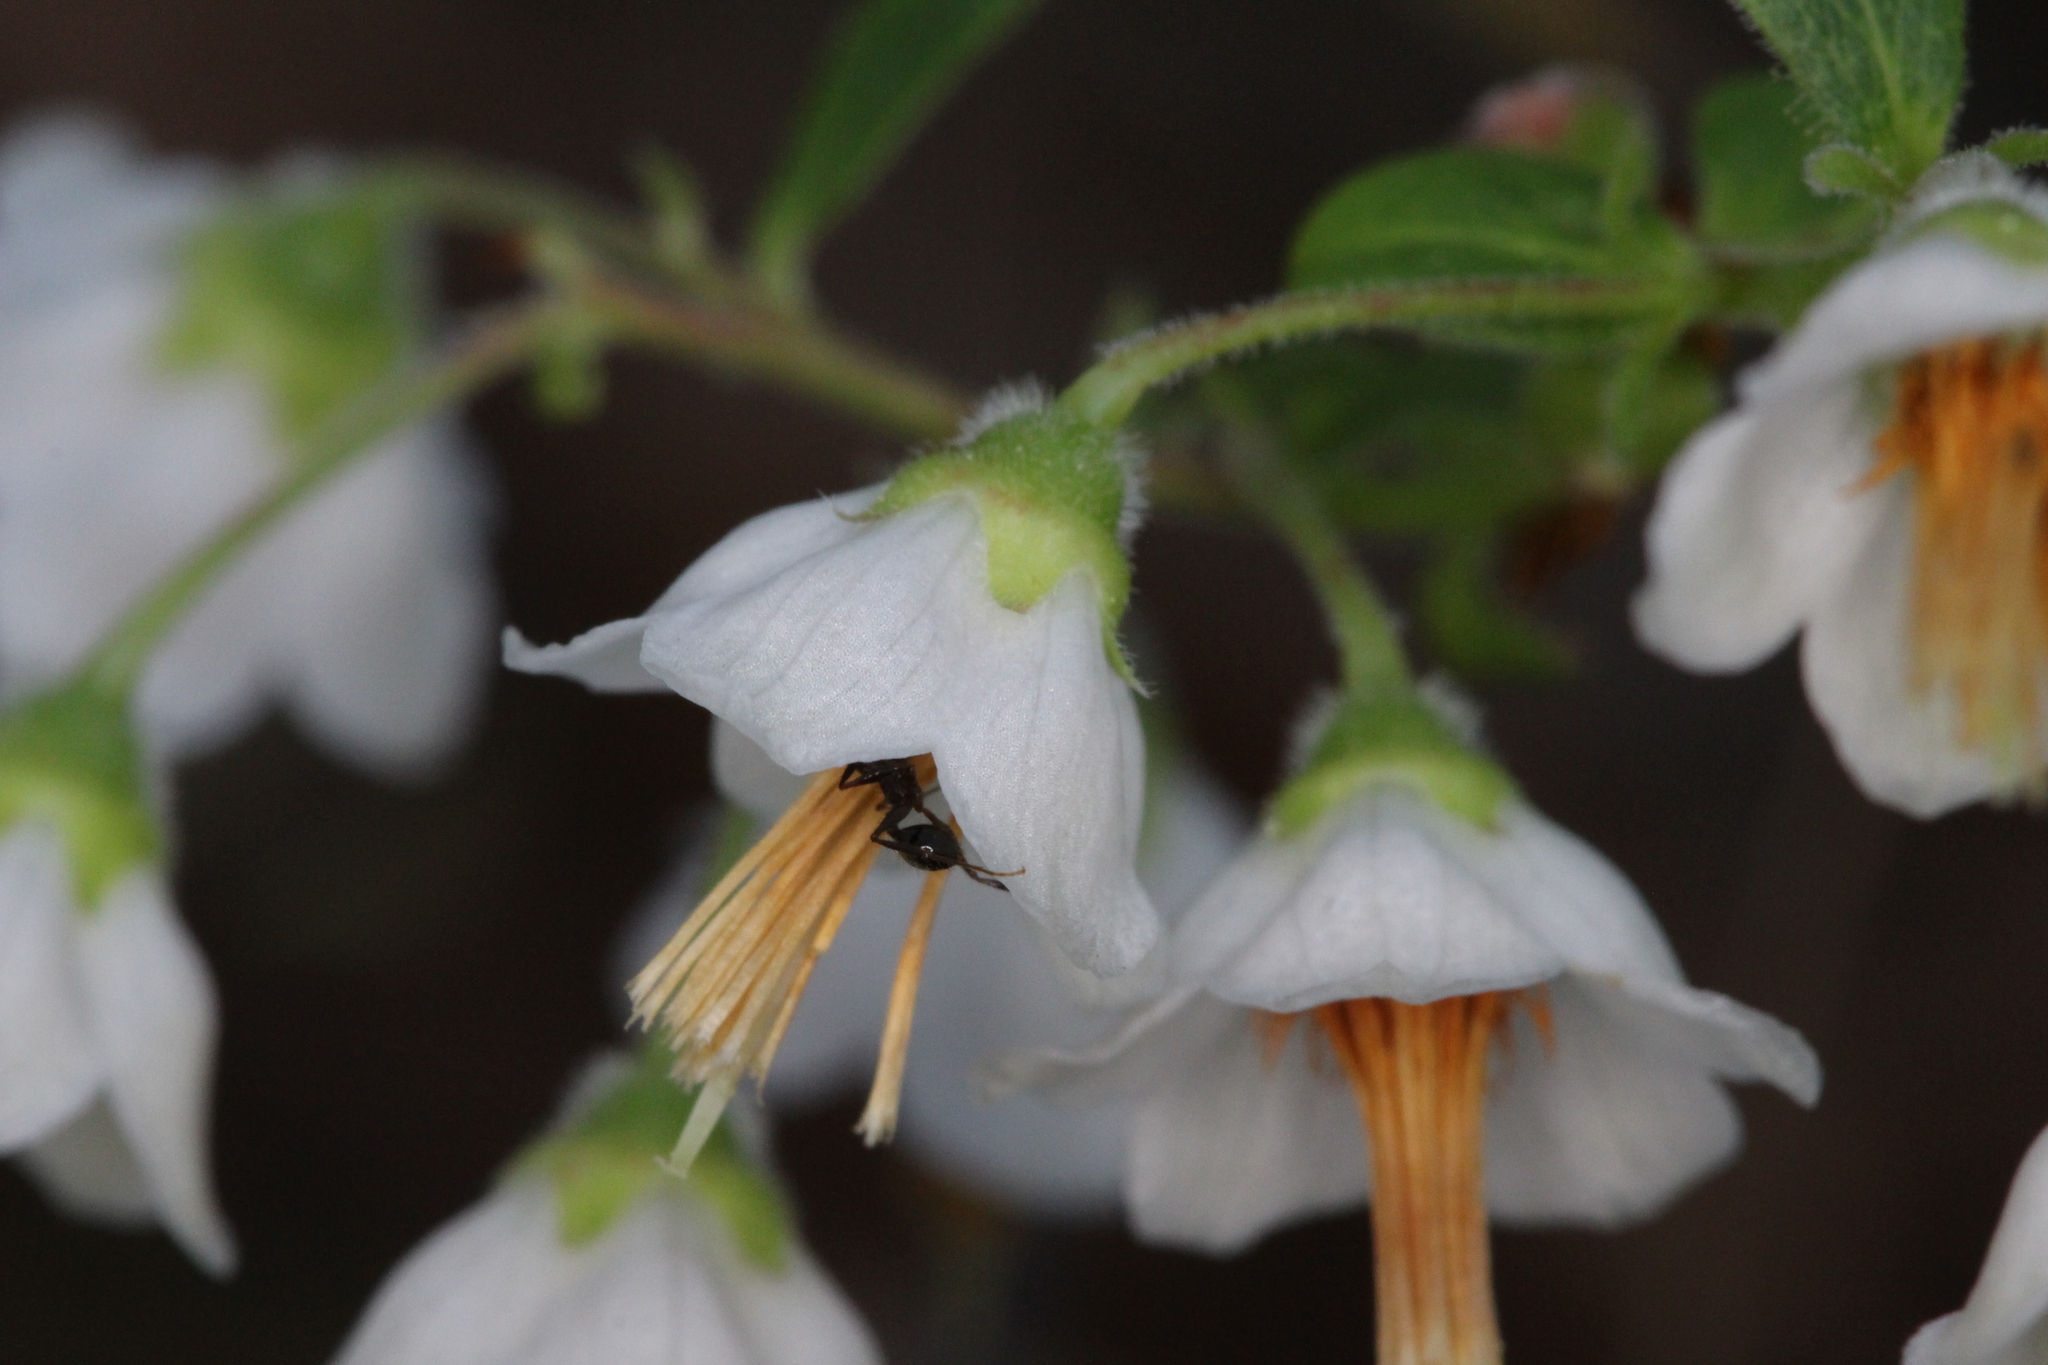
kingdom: Plantae
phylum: Tracheophyta
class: Magnoliopsida
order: Ericales
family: Ericaceae
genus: Vaccinium
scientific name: Vaccinium
